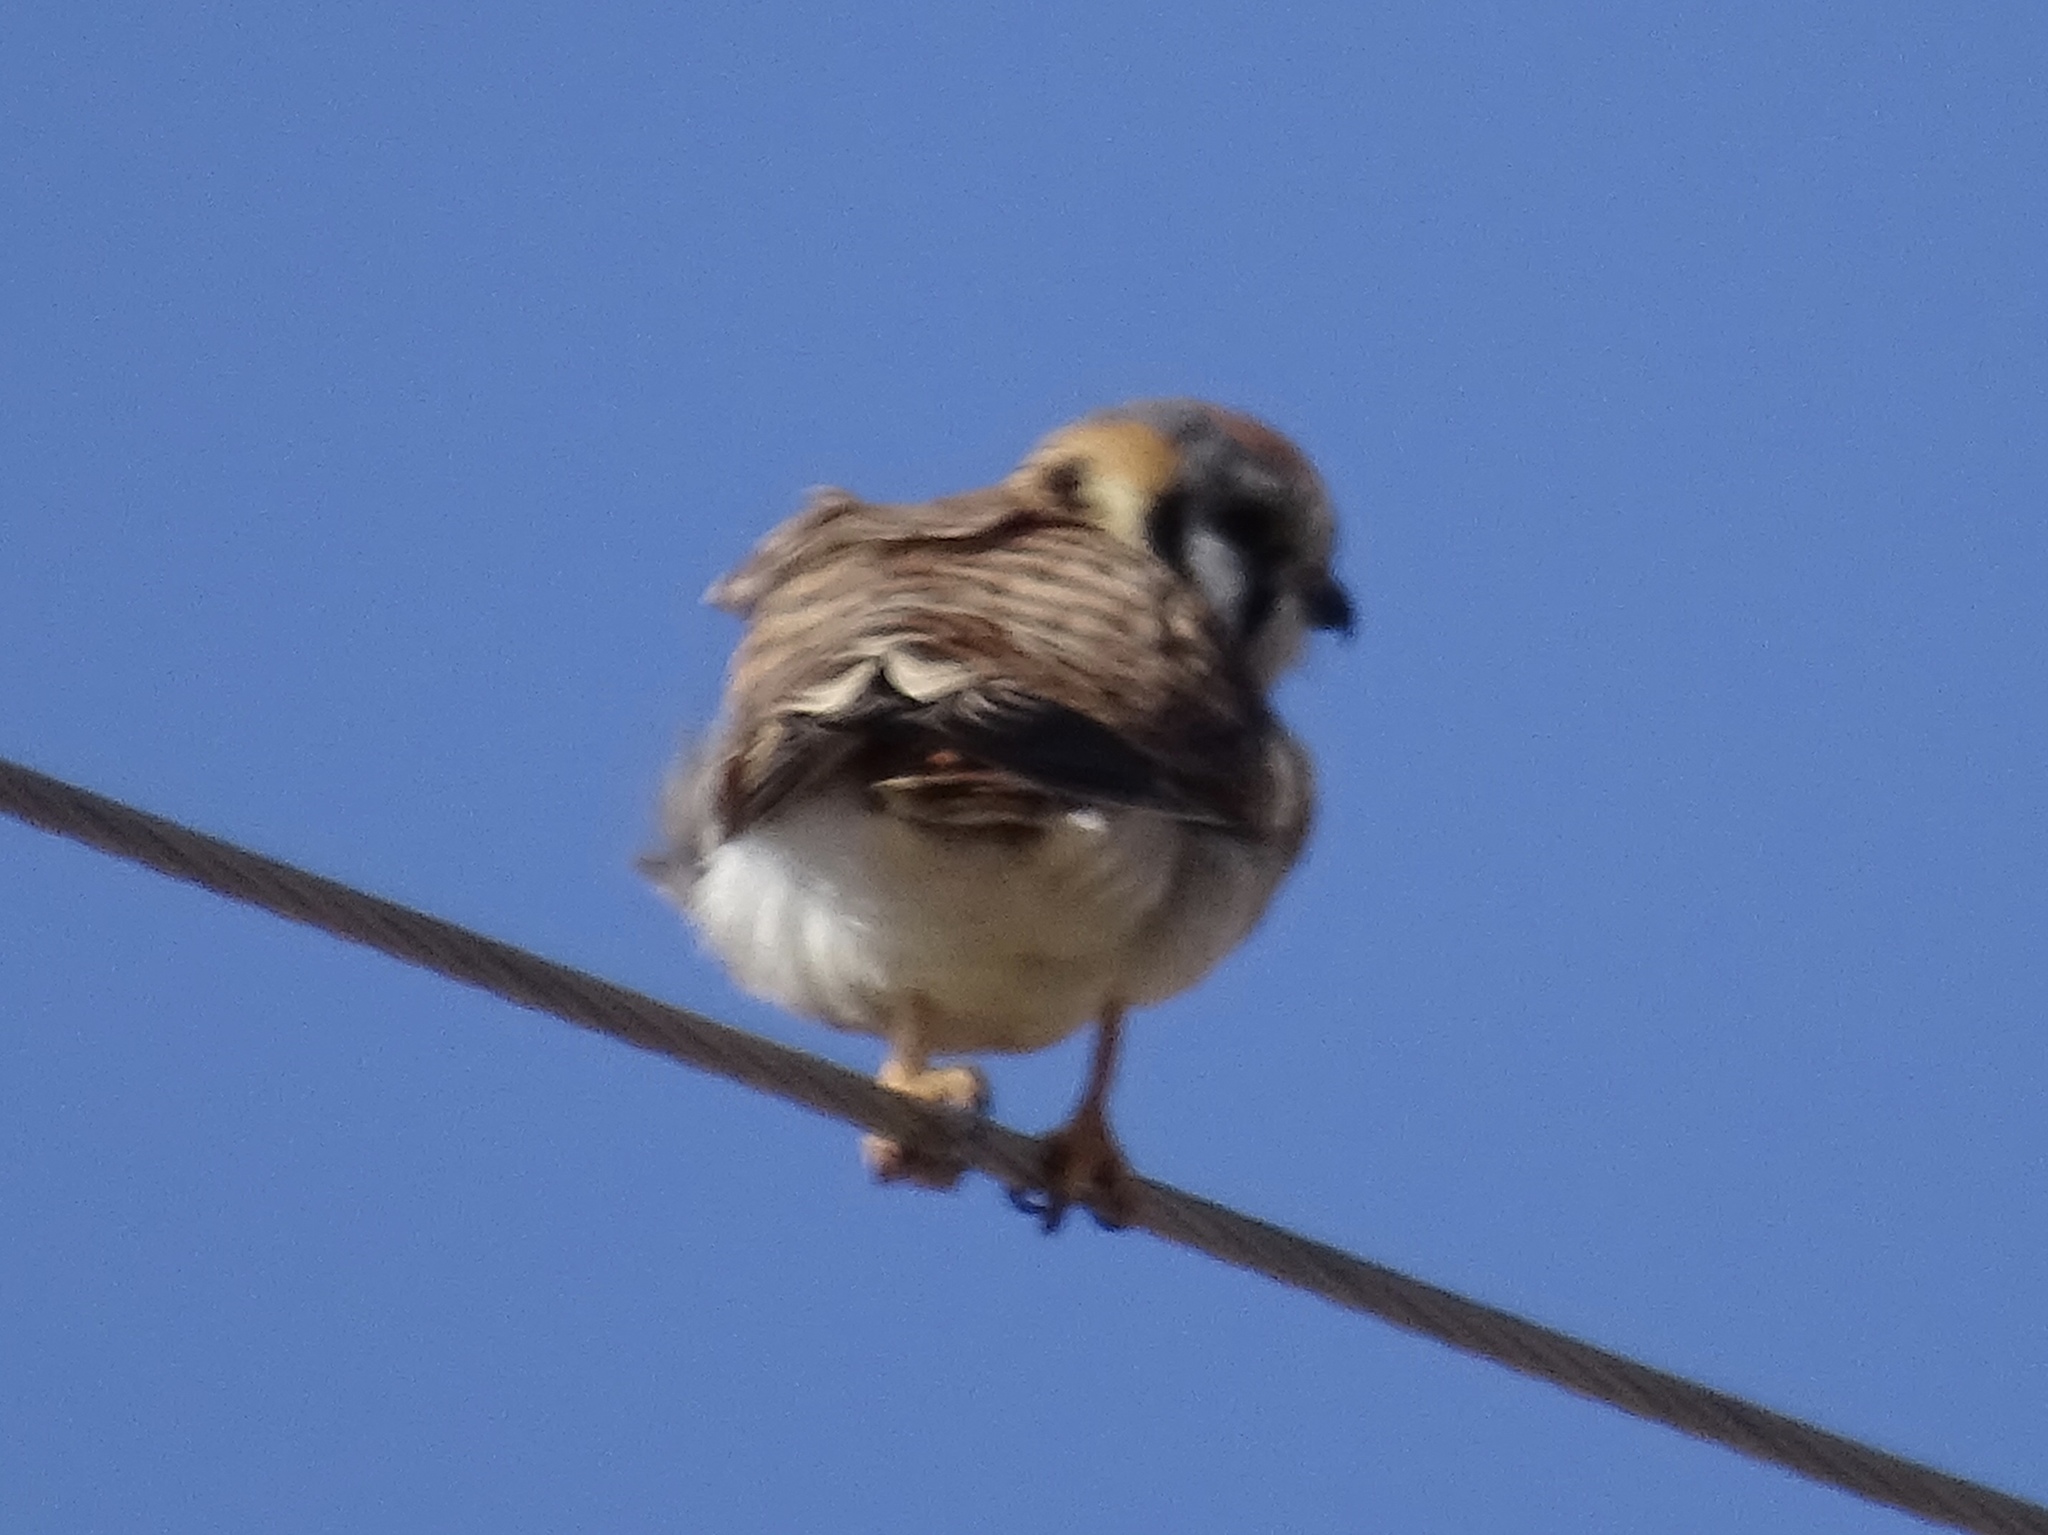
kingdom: Animalia
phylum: Chordata
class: Aves
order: Falconiformes
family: Falconidae
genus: Falco
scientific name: Falco sparverius
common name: American kestrel
